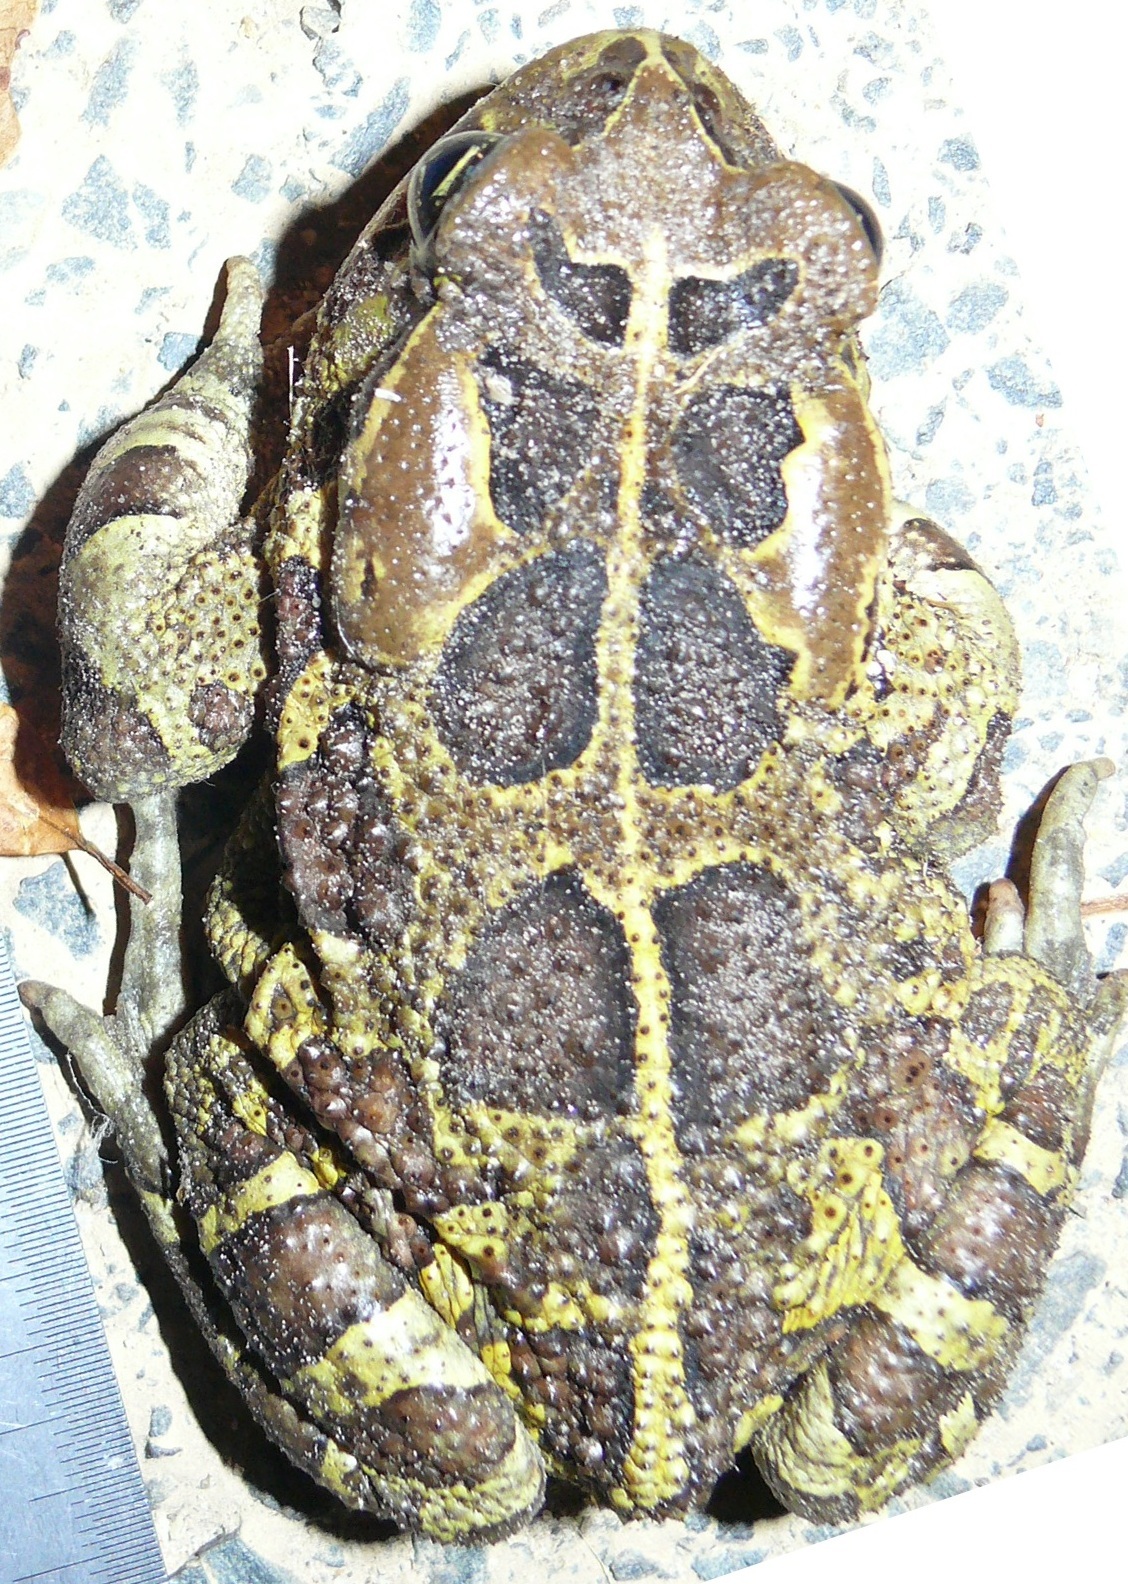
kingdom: Animalia
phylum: Chordata
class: Amphibia
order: Anura
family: Bufonidae
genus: Sclerophrys
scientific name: Sclerophrys pantherina
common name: Panther toad
